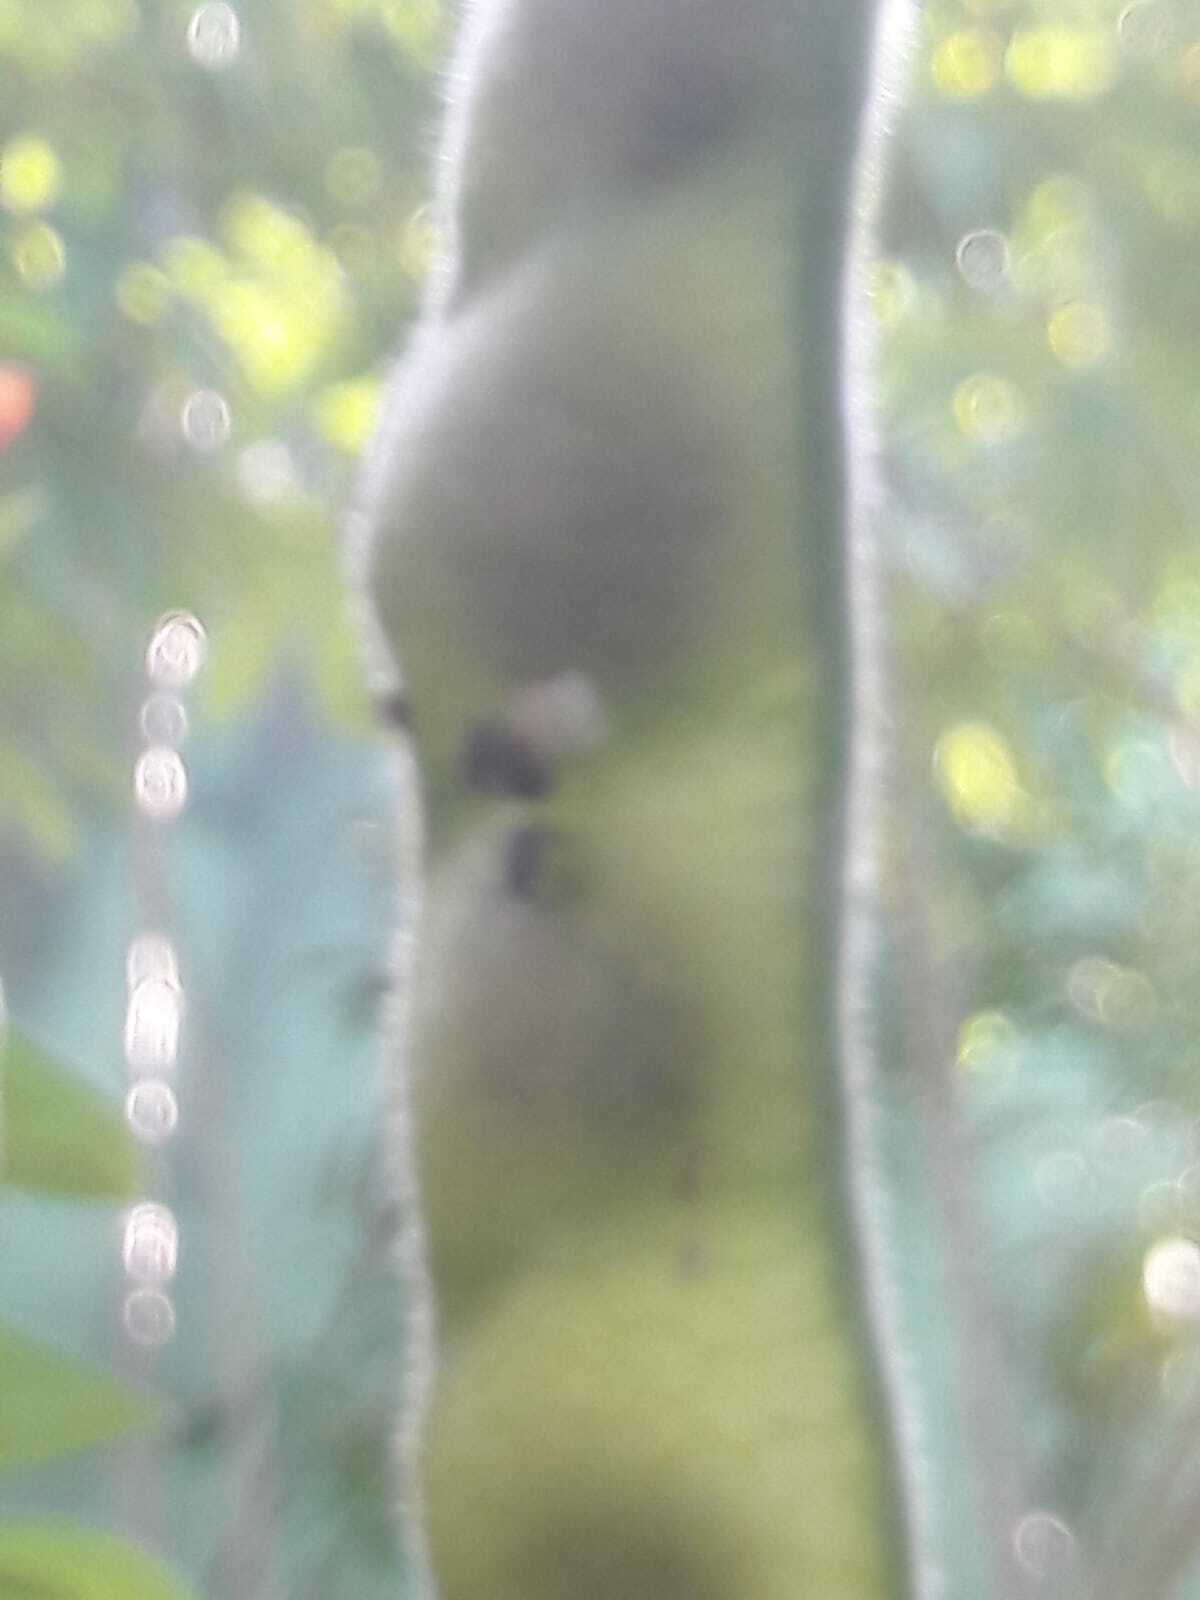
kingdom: Plantae
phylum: Tracheophyta
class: Magnoliopsida
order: Fabales
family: Fabaceae
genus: Cajanus
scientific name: Cajanus cajan
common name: Pigeonpea
